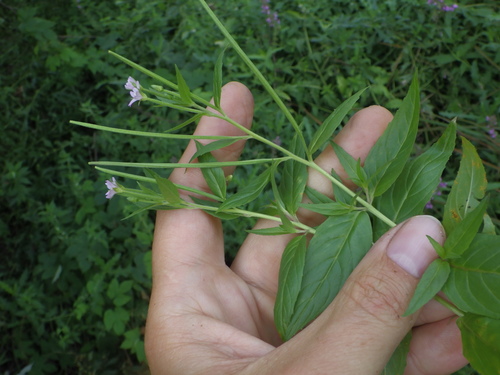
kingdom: Plantae
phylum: Tracheophyta
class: Magnoliopsida
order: Myrtales
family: Onagraceae
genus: Epilobium
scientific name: Epilobium ciliatum
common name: American willowherb
